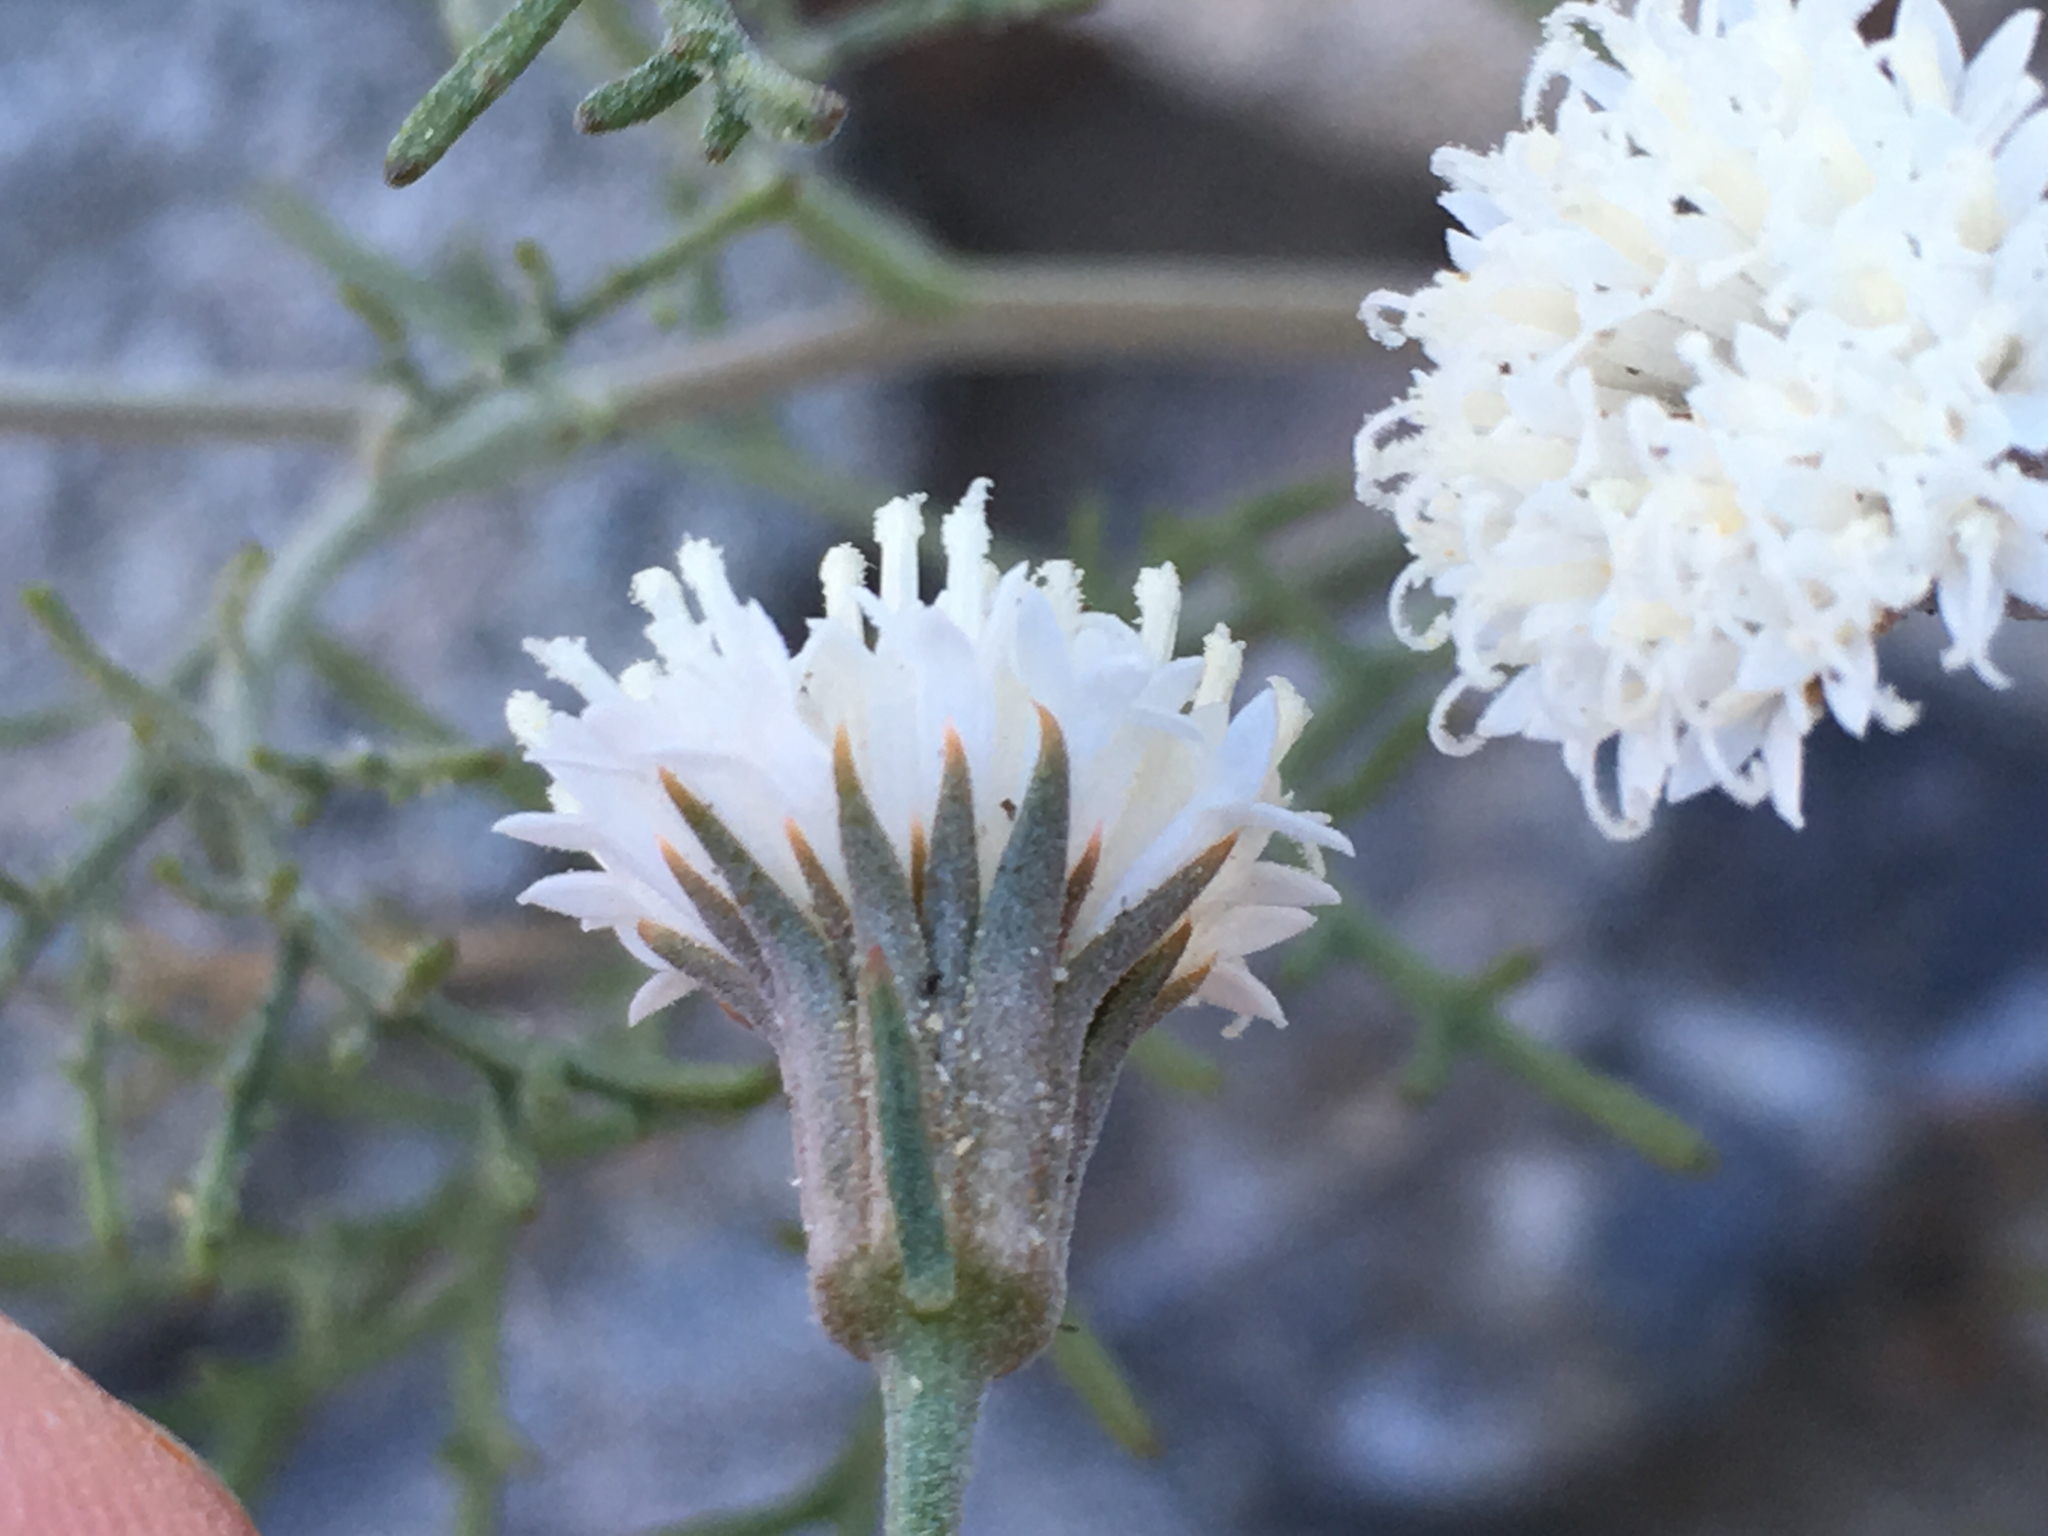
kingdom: Plantae
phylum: Tracheophyta
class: Magnoliopsida
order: Asterales
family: Asteraceae
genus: Chaenactis
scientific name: Chaenactis carphoclinia
